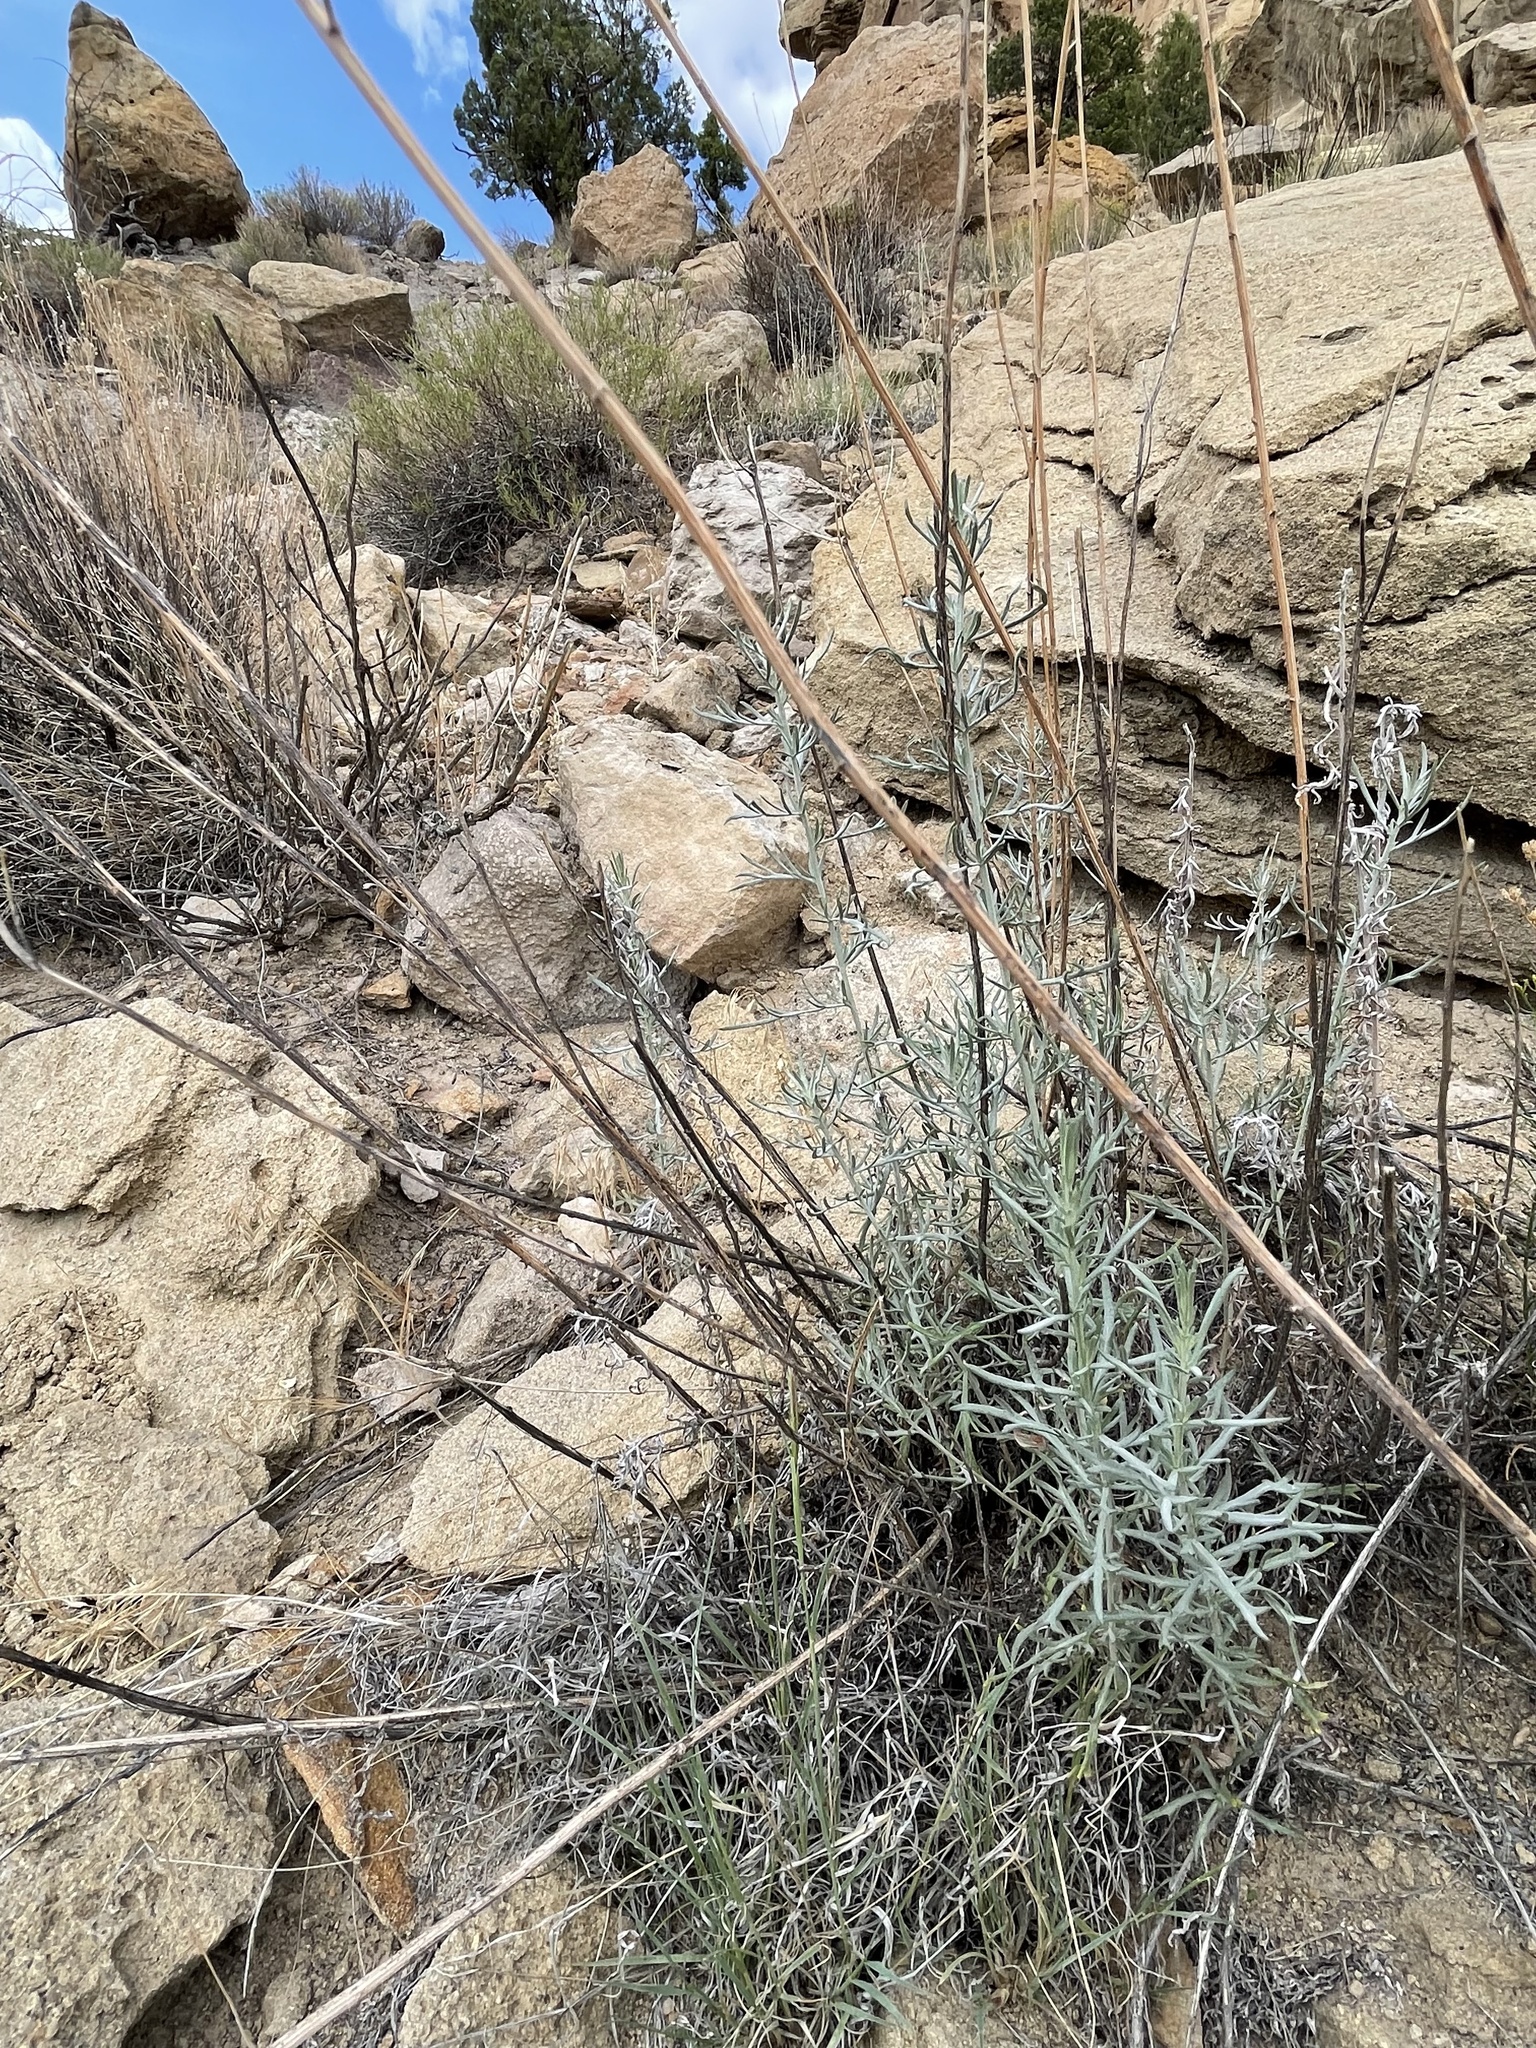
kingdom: Plantae
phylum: Tracheophyta
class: Magnoliopsida
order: Asterales
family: Asteraceae
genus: Artemisia
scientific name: Artemisia ludoviciana
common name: Western mugwort
